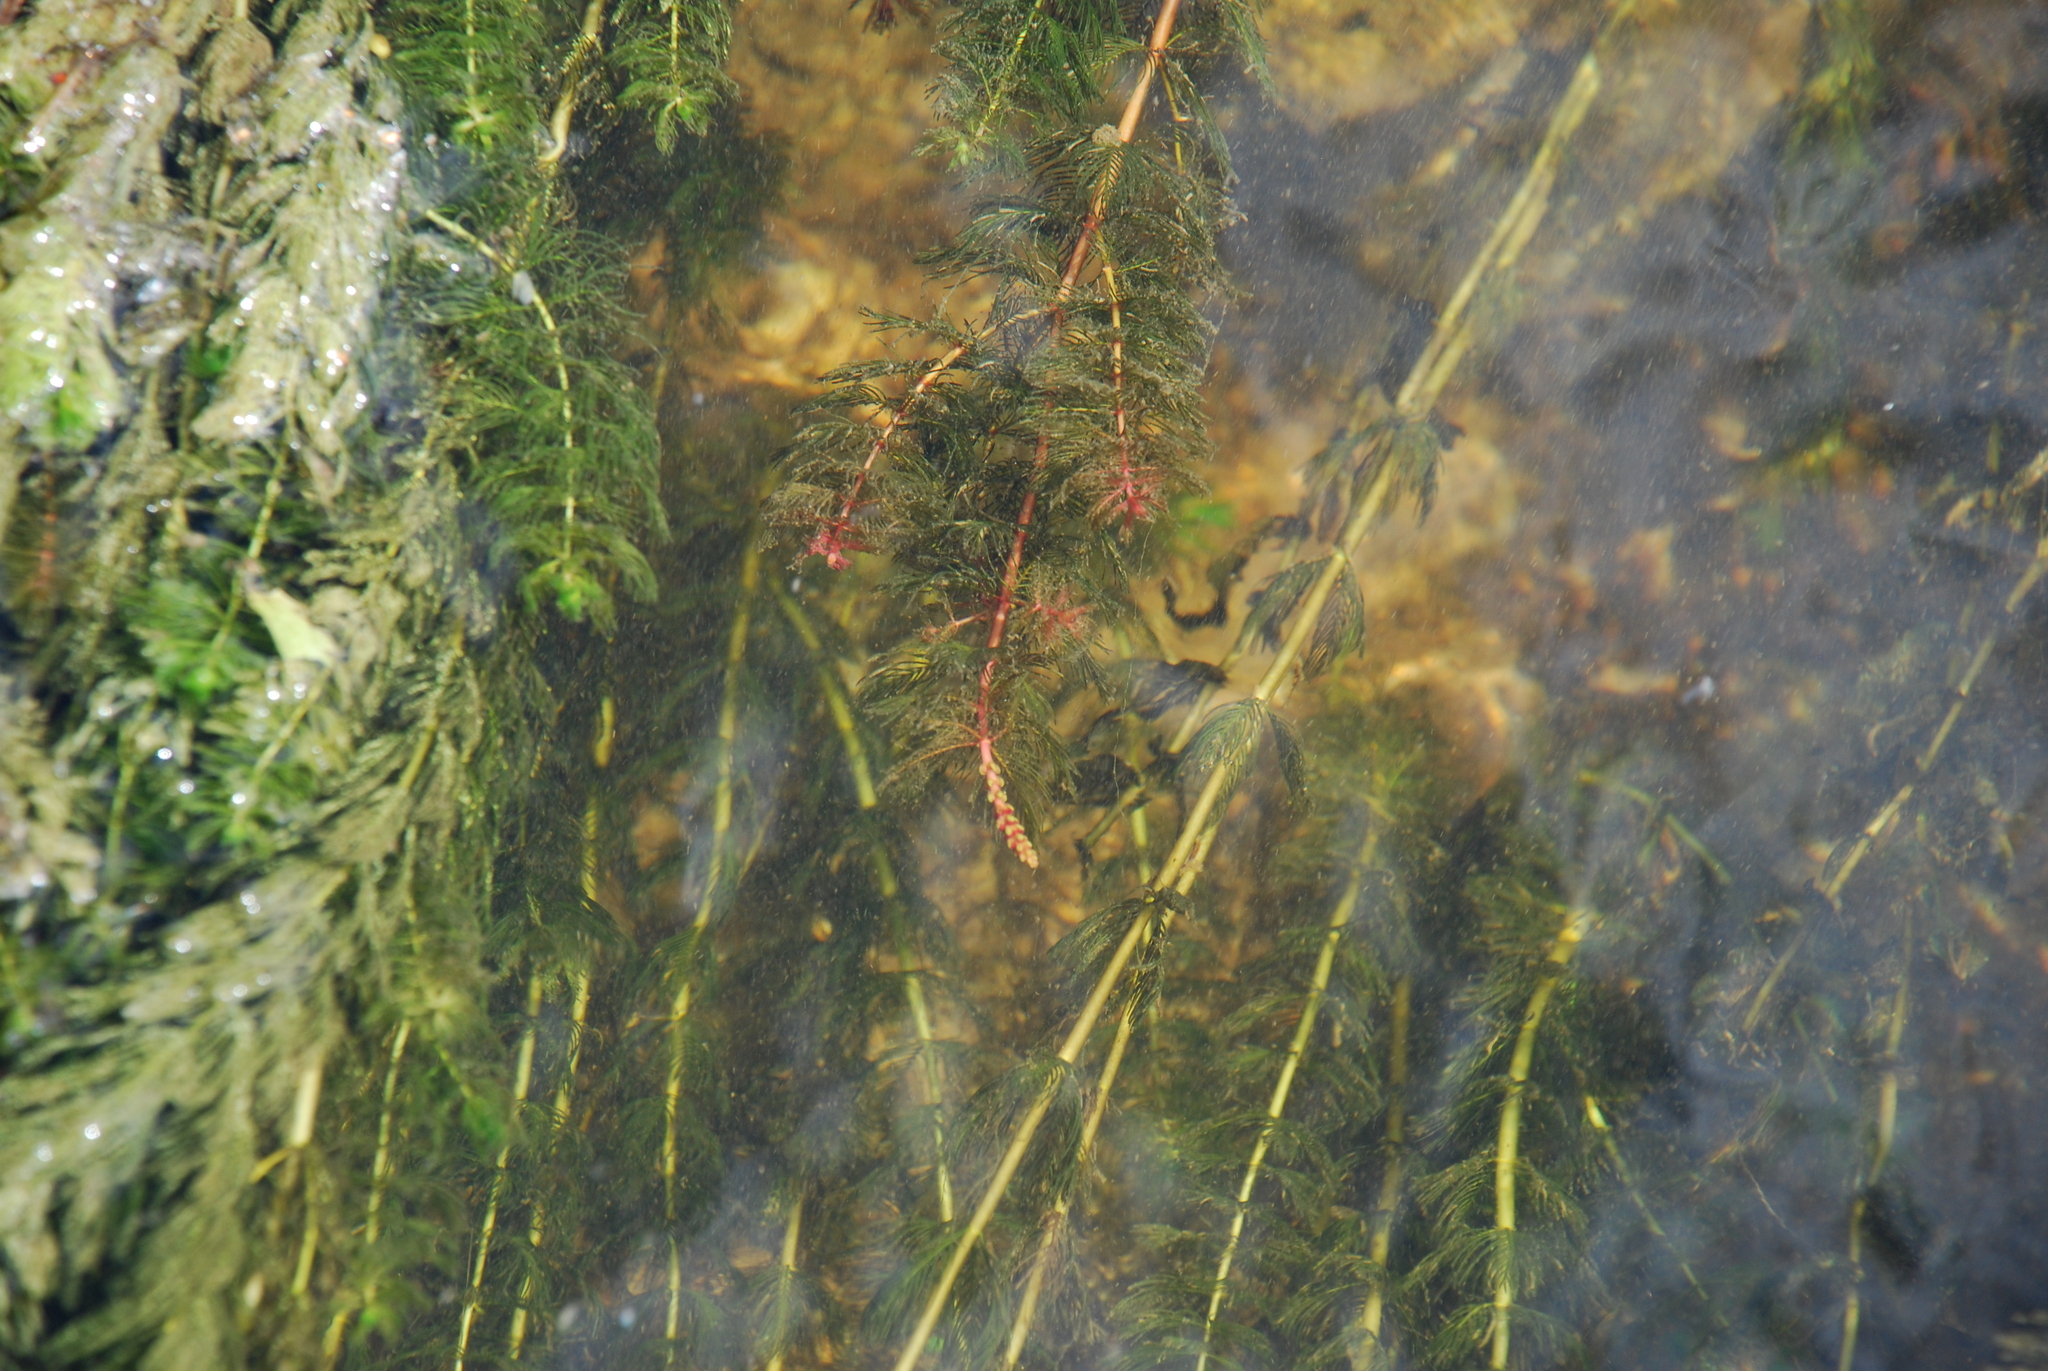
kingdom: Plantae
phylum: Tracheophyta
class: Magnoliopsida
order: Saxifragales
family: Haloragaceae
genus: Myriophyllum
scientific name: Myriophyllum spicatum
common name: Spiked water-milfoil
